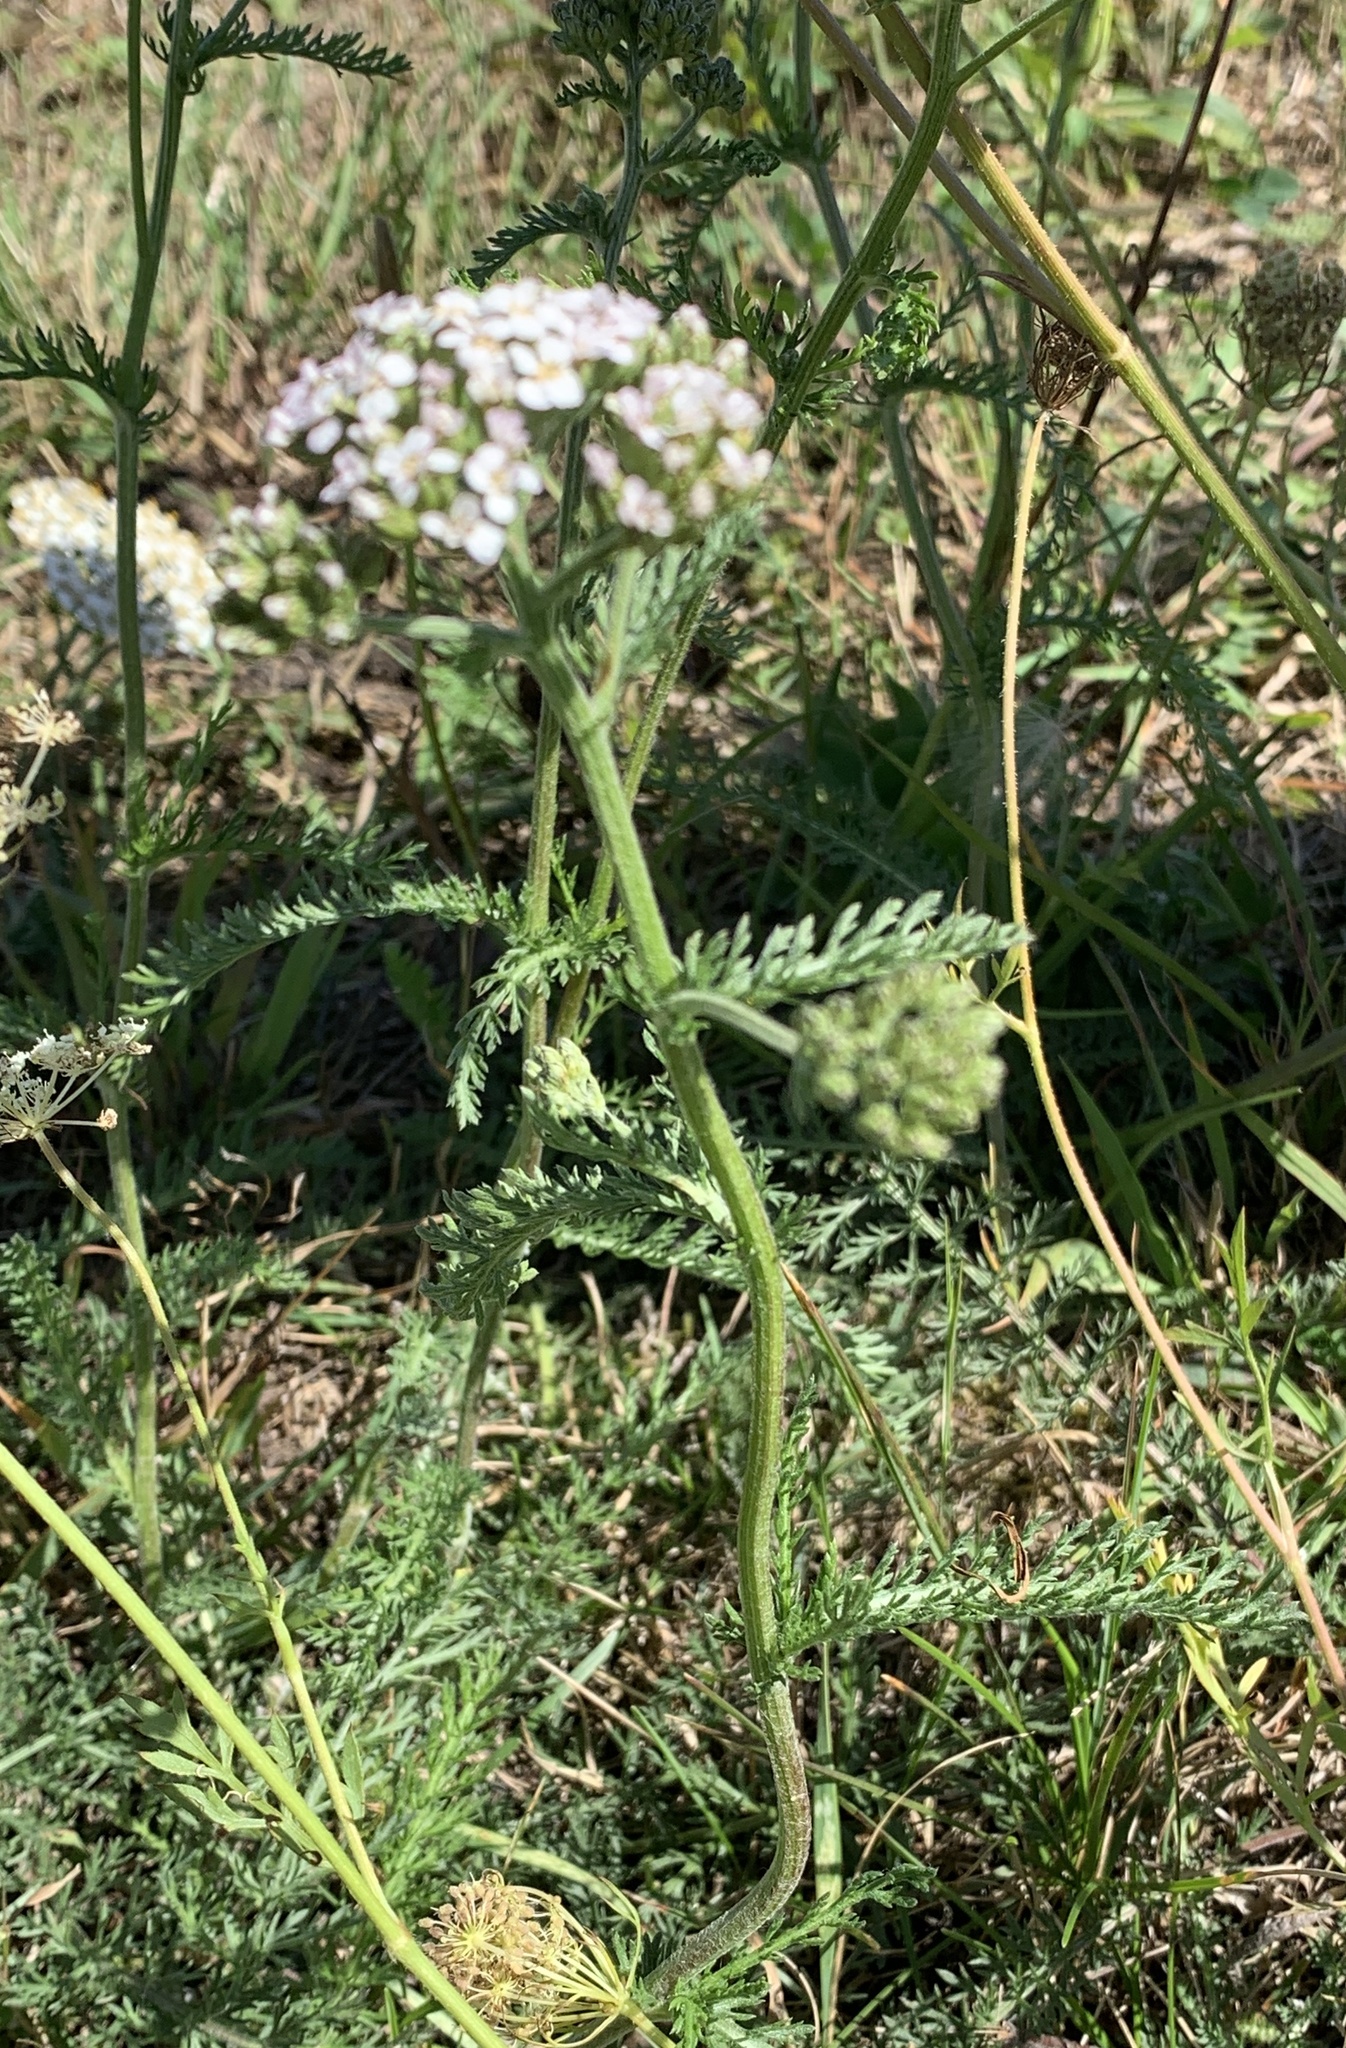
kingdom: Plantae
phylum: Tracheophyta
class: Magnoliopsida
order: Asterales
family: Asteraceae
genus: Achillea
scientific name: Achillea millefolium
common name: Yarrow
